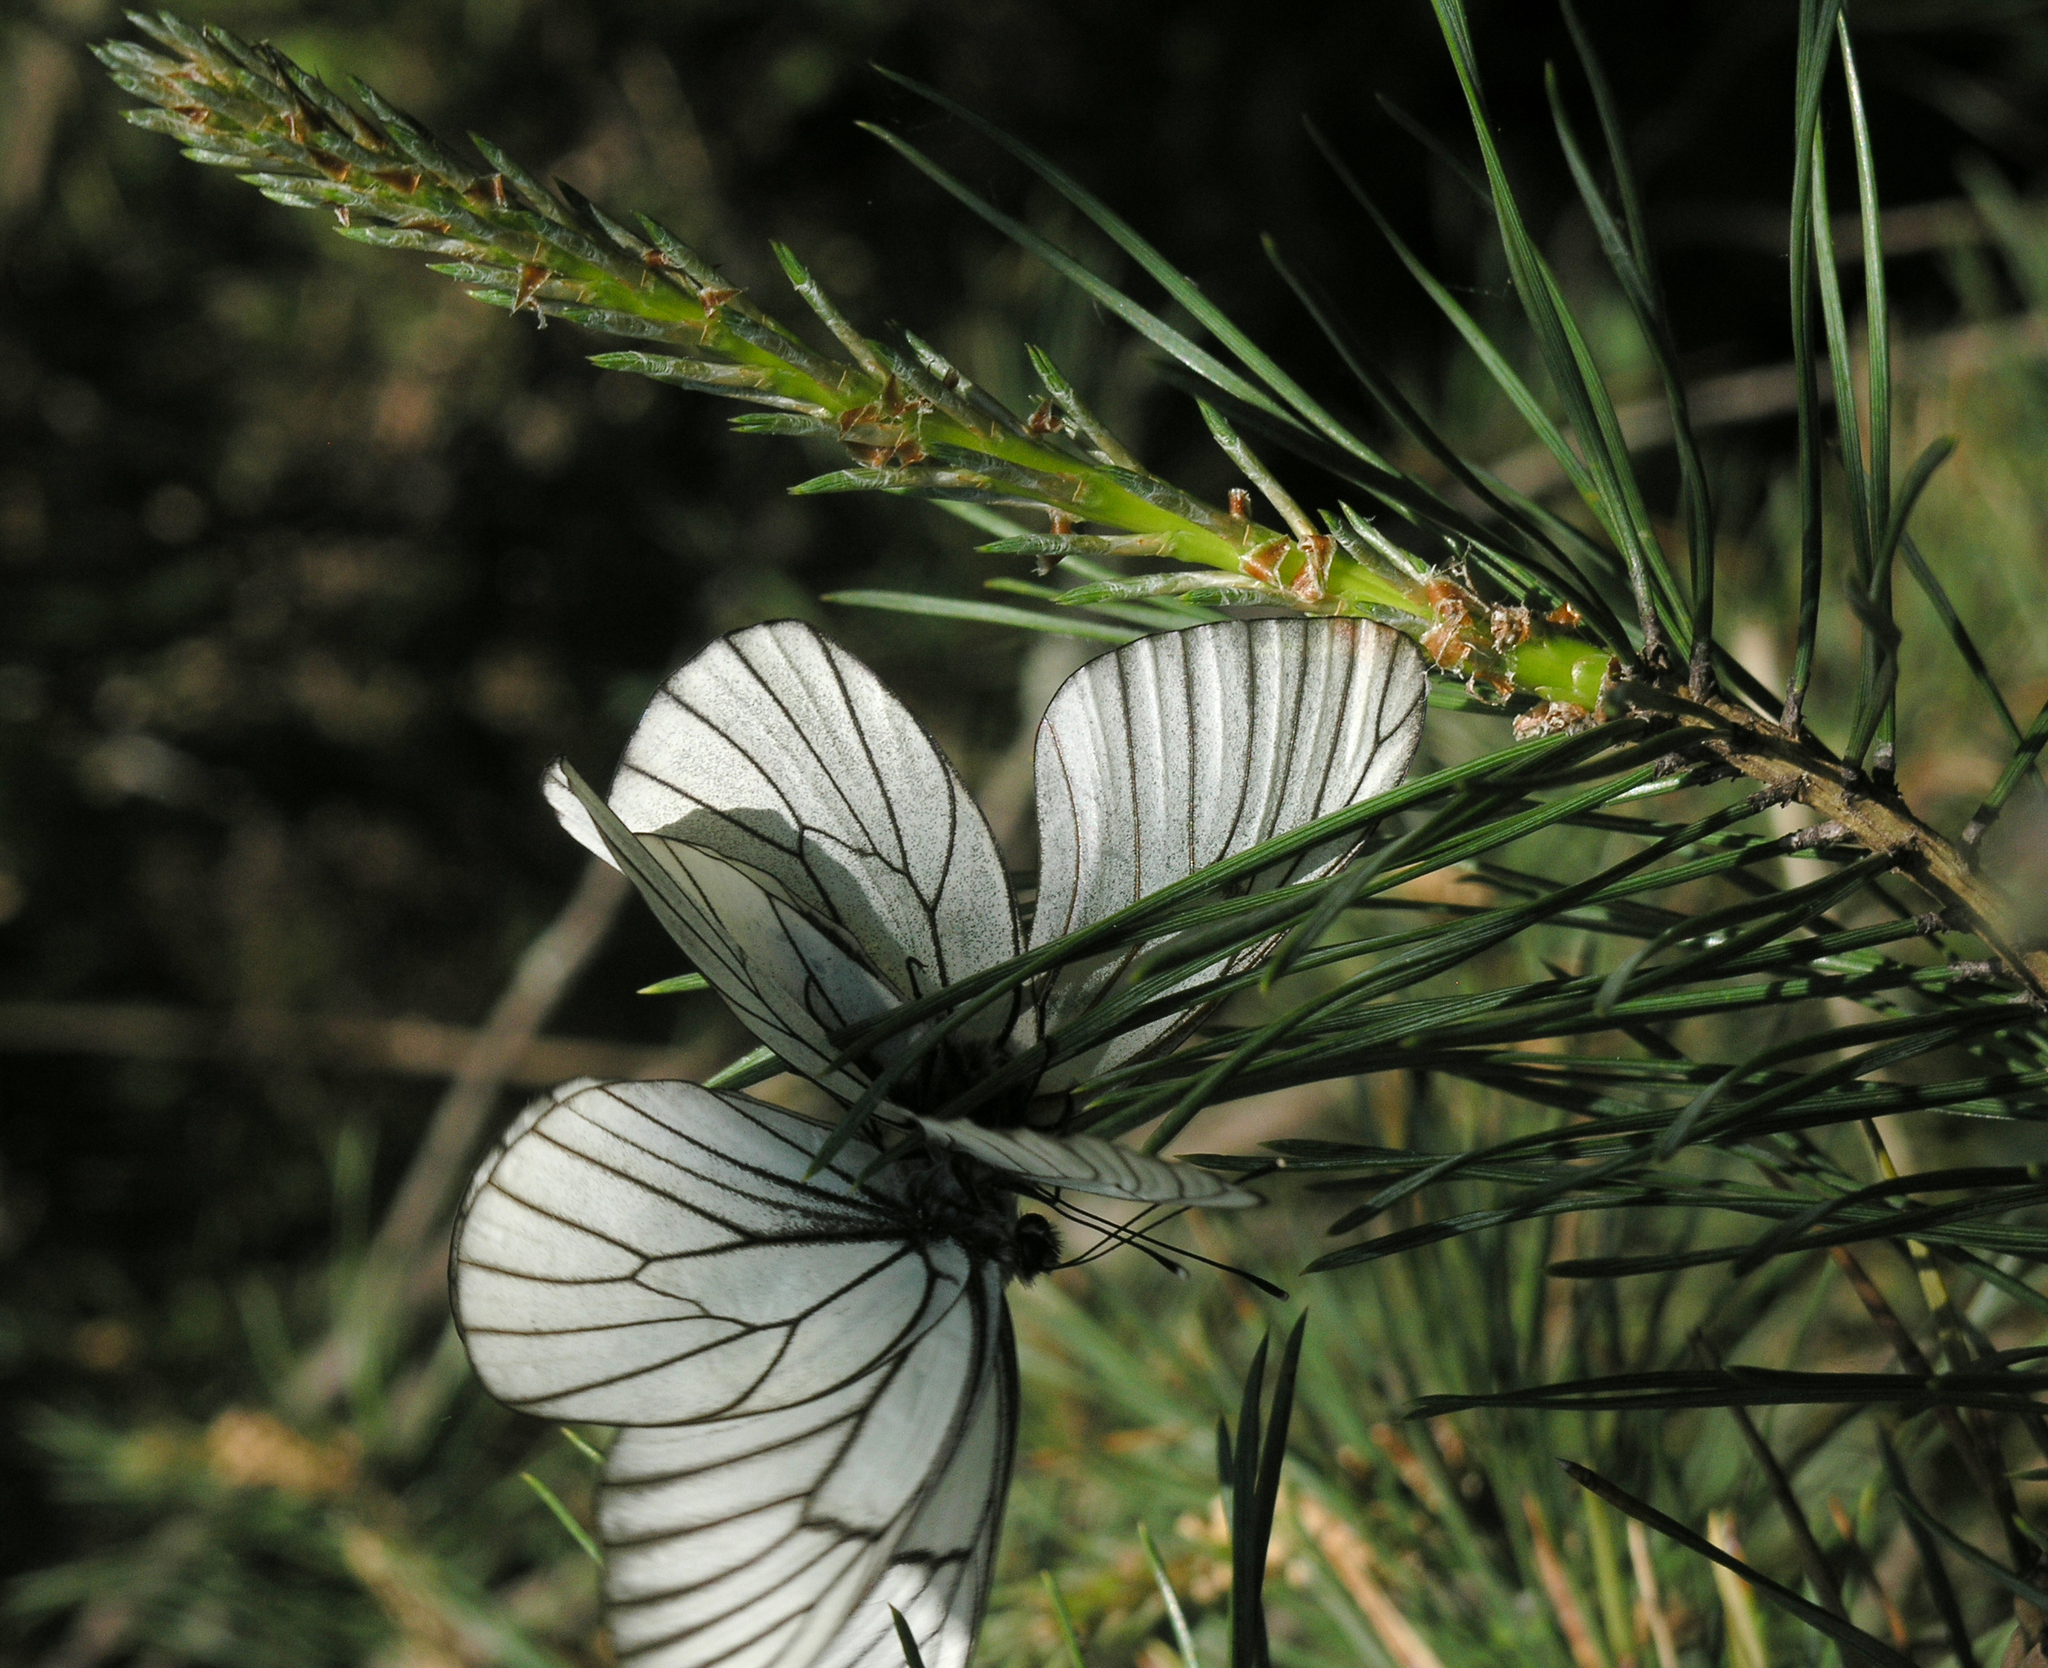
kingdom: Animalia
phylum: Arthropoda
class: Insecta
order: Lepidoptera
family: Pieridae
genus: Aporia
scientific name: Aporia crataegi
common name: Black-veined white
